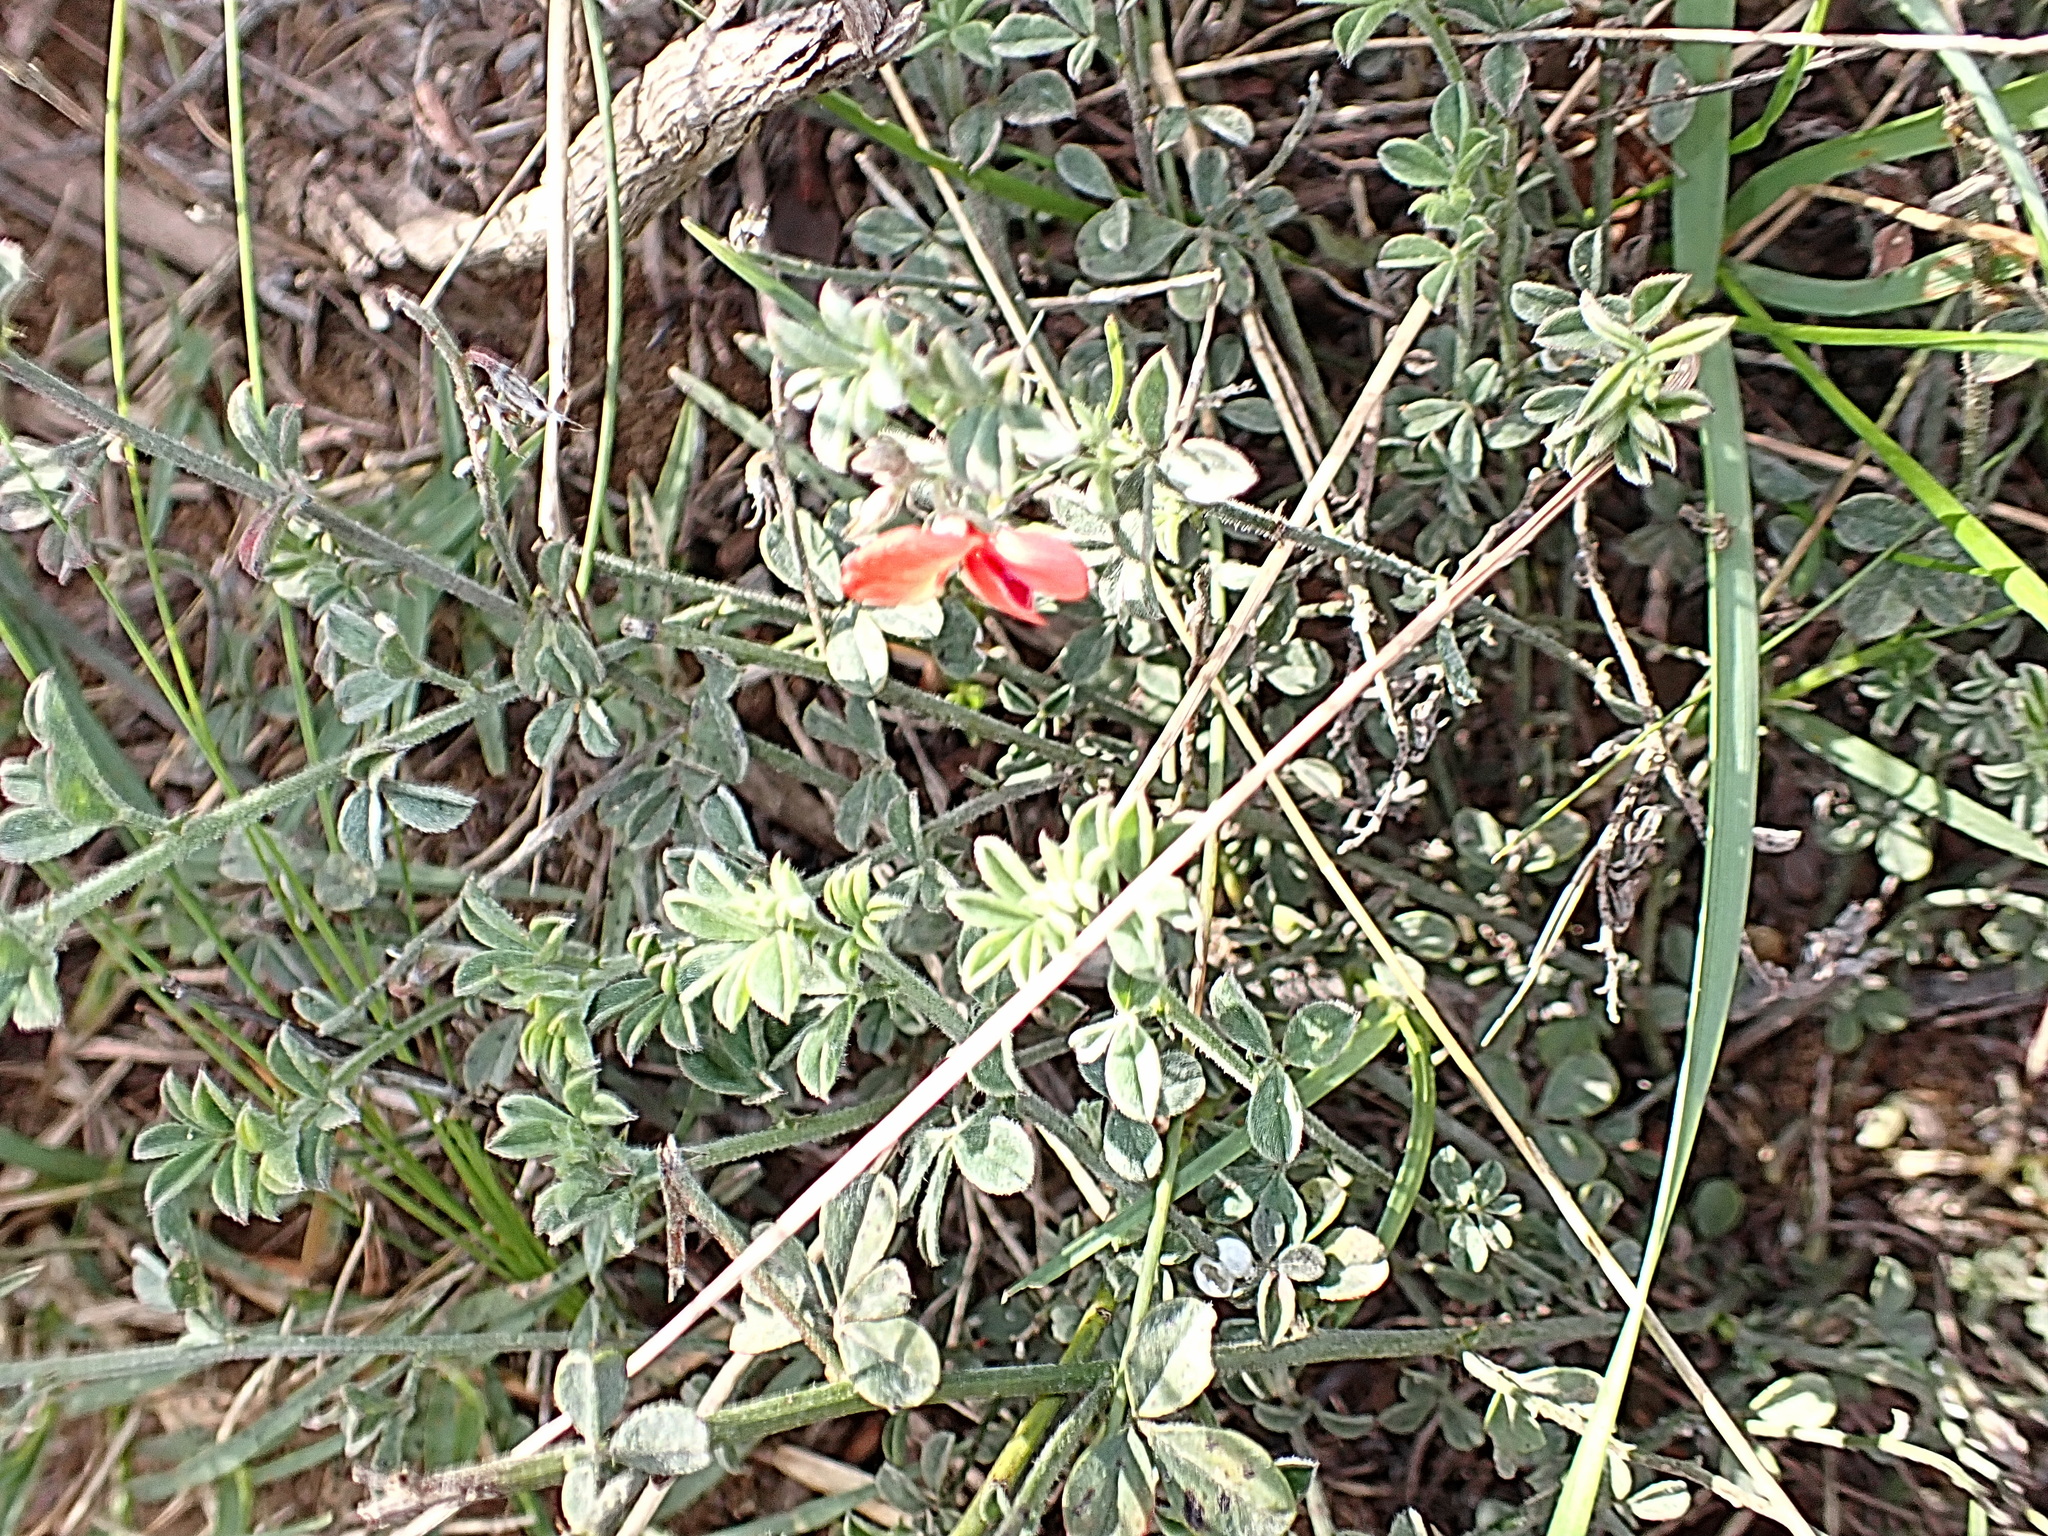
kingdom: Plantae
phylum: Tracheophyta
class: Magnoliopsida
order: Fabales
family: Fabaceae
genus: Indigofera
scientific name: Indigofera priorii
